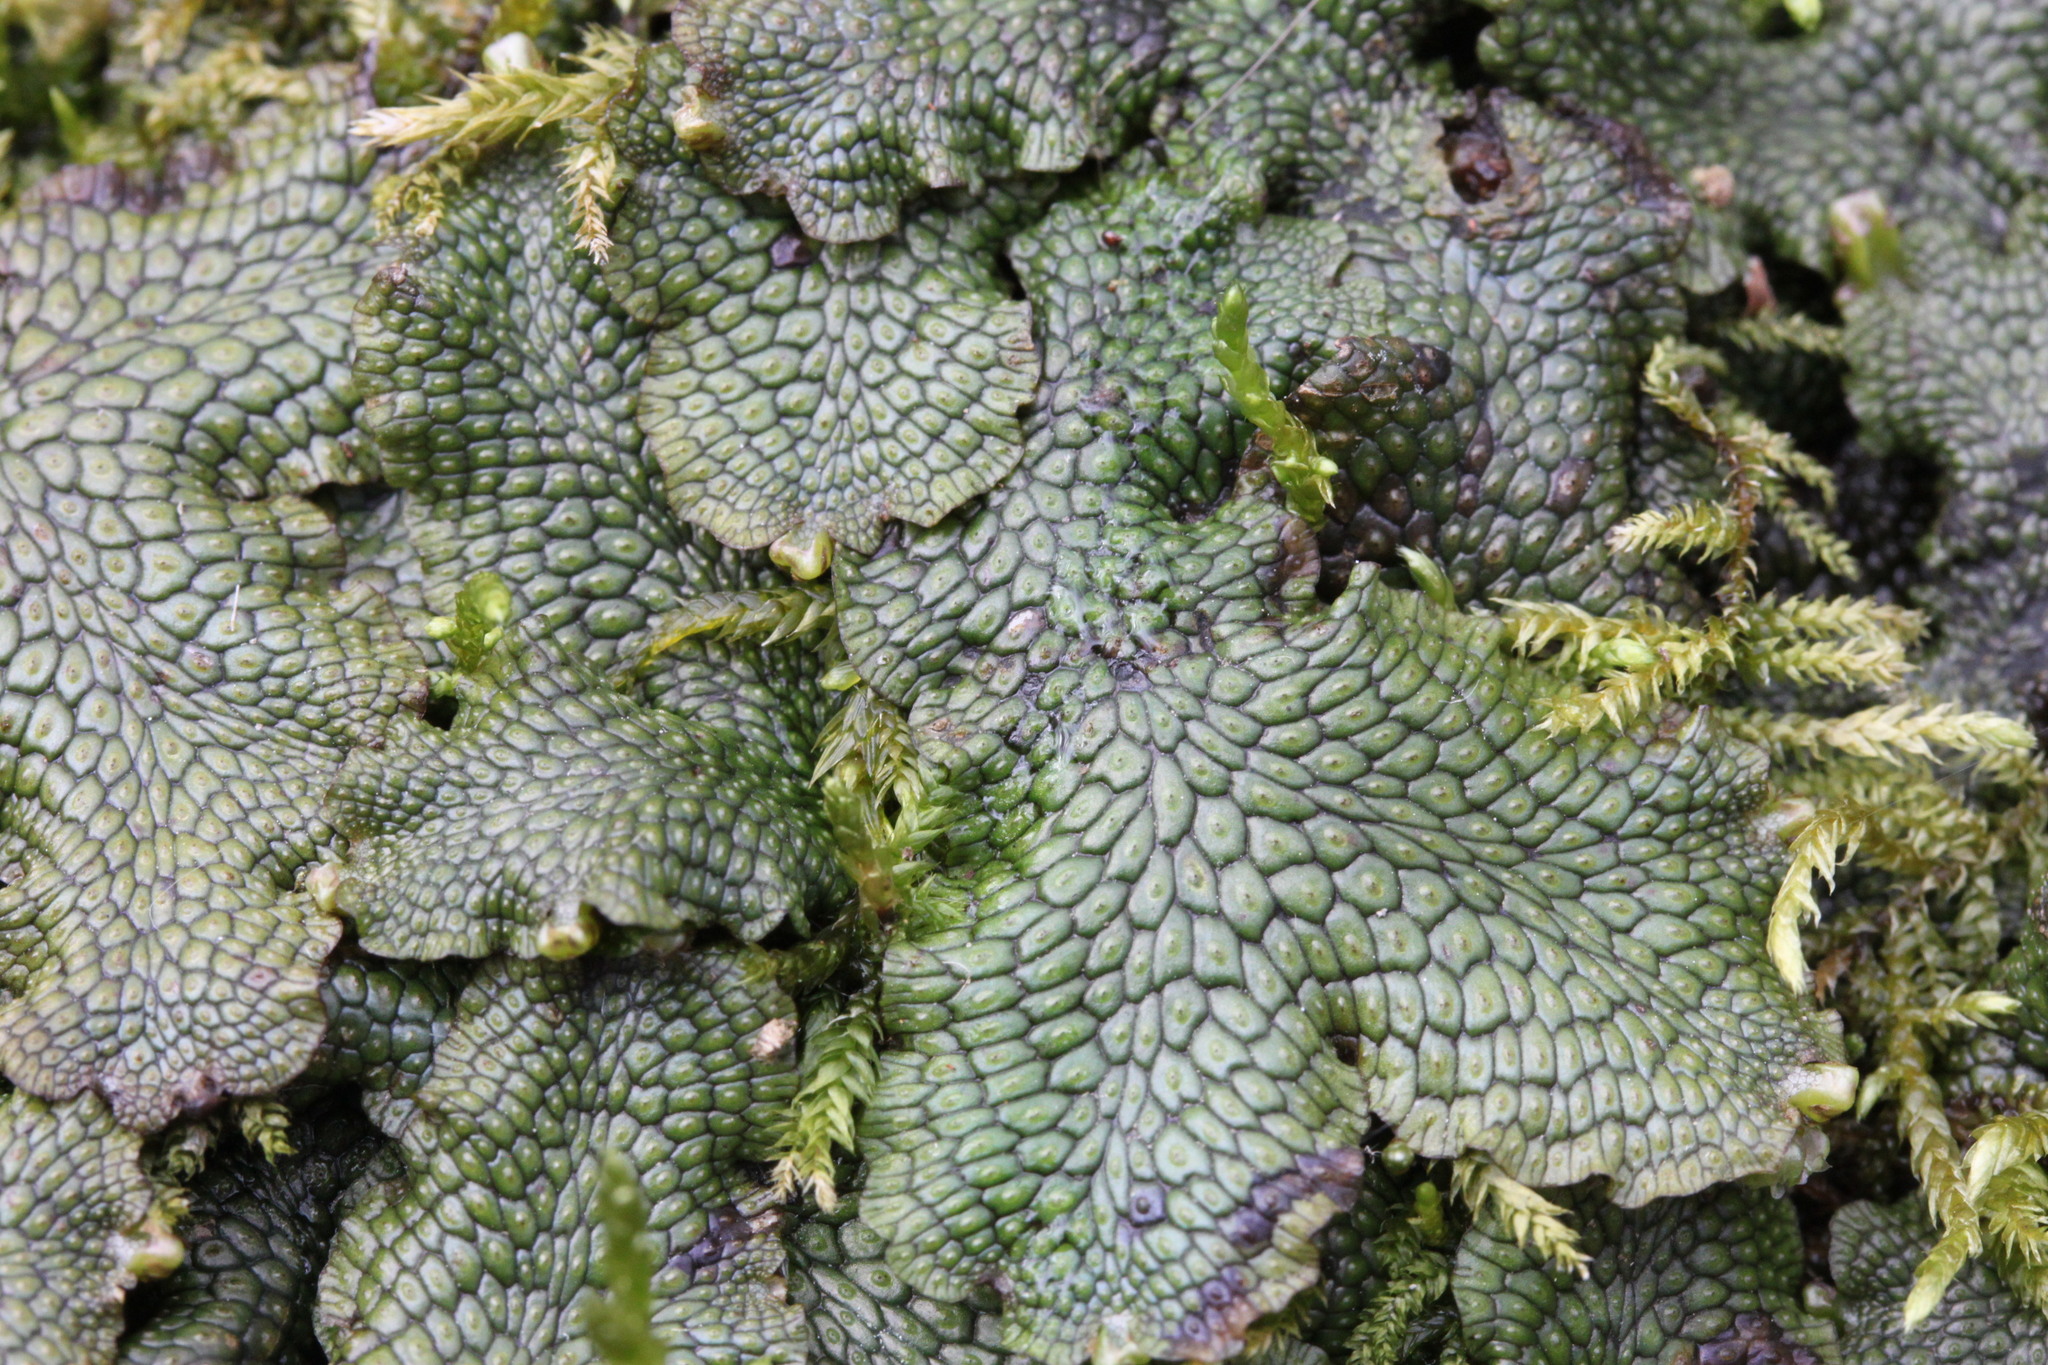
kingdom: Plantae
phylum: Marchantiophyta
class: Marchantiopsida
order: Marchantiales
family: Conocephalaceae
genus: Conocephalum
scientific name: Conocephalum salebrosum
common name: Cat-tongue liverwort
